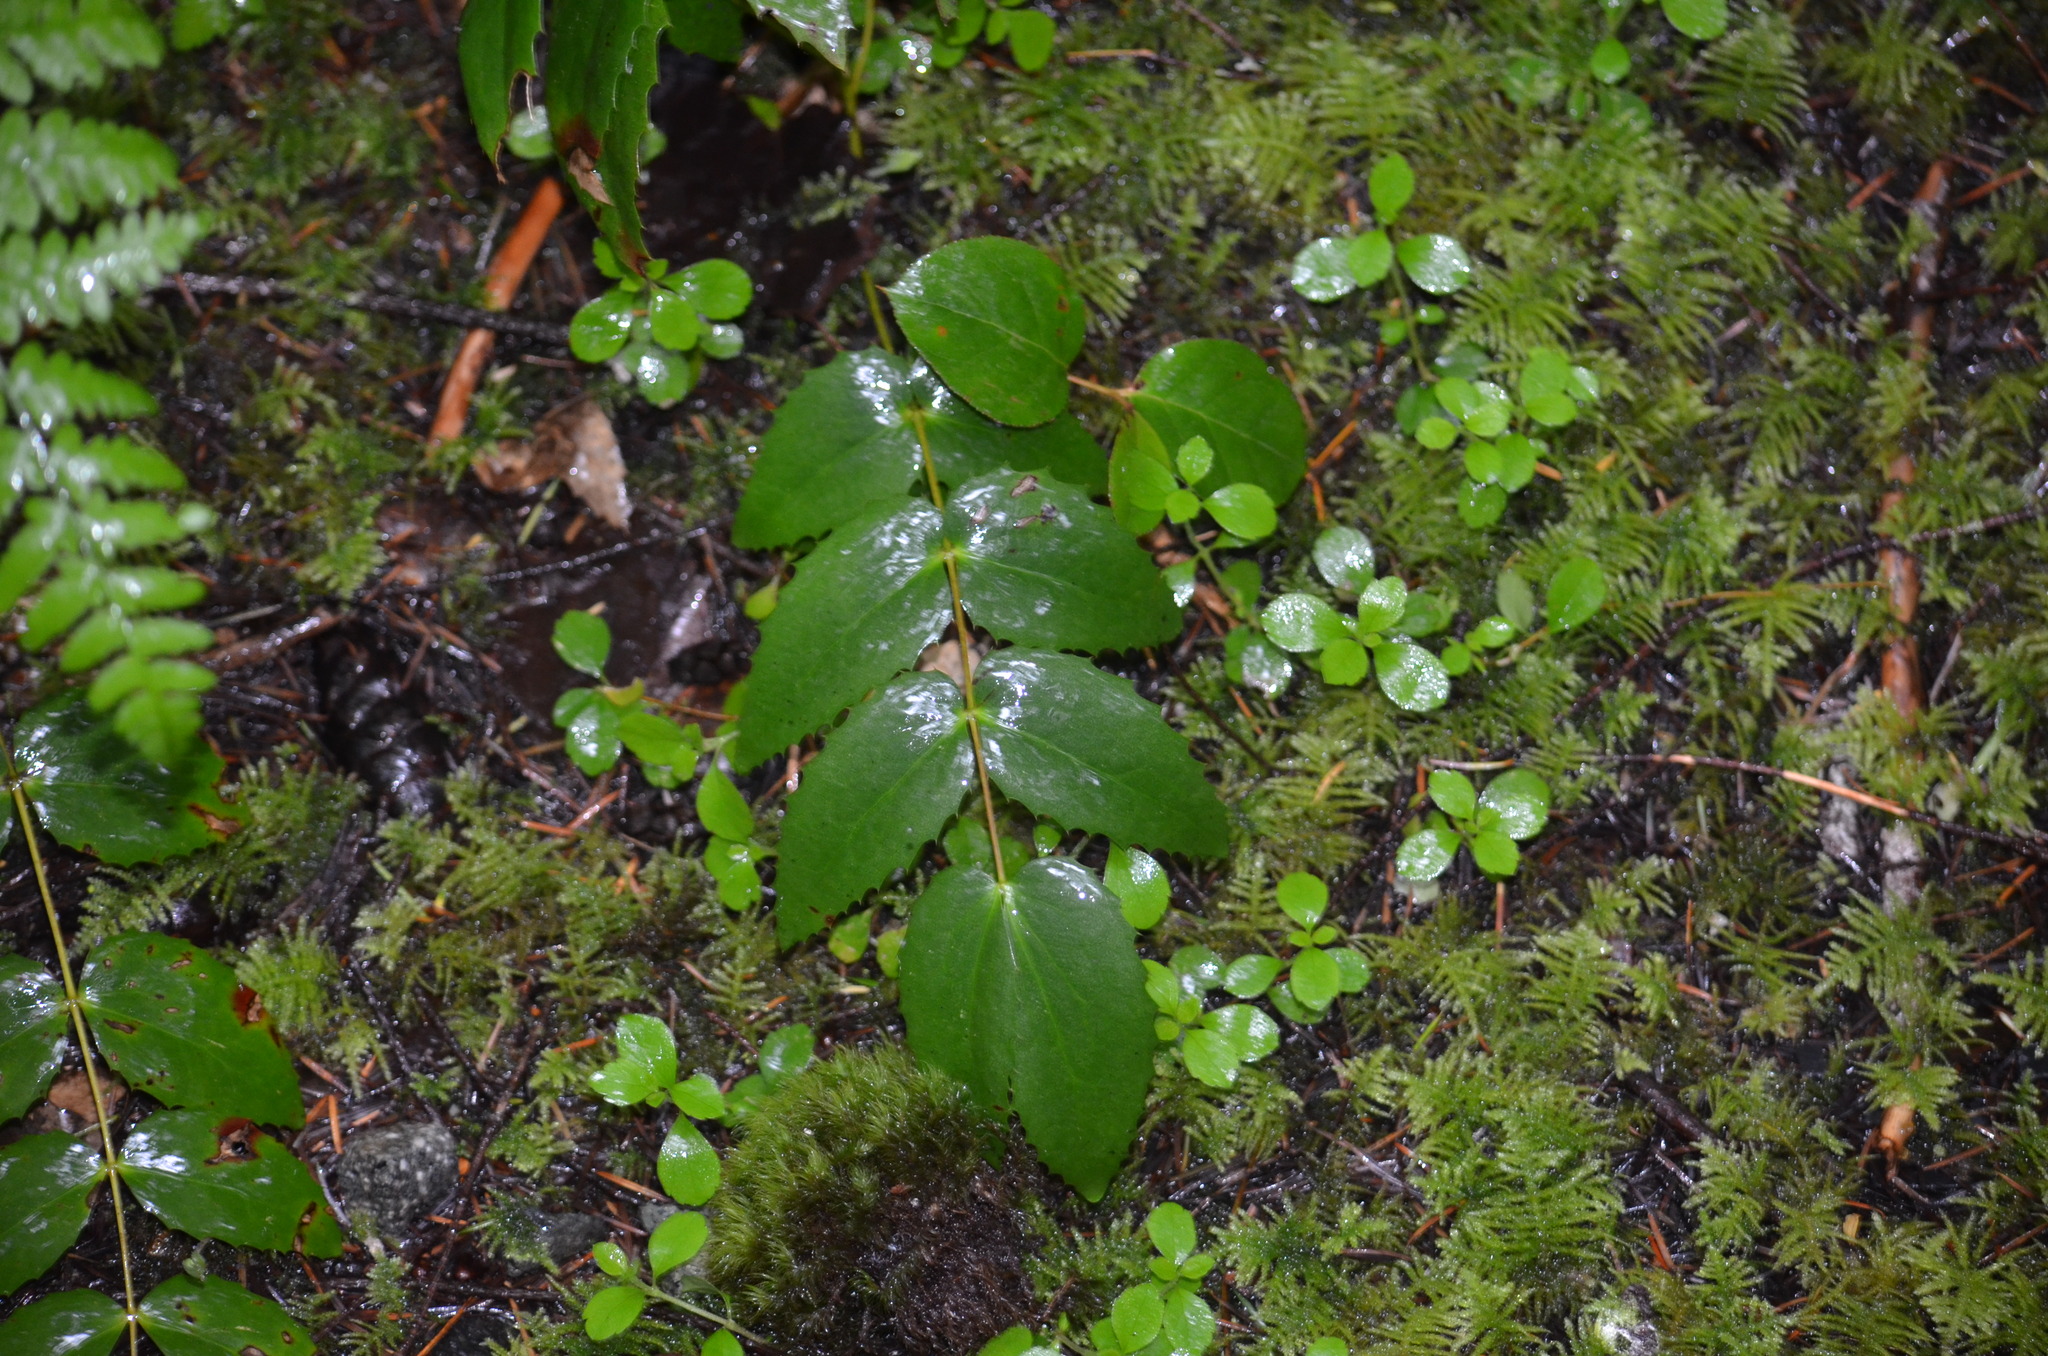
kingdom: Plantae
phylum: Tracheophyta
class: Magnoliopsida
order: Ranunculales
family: Berberidaceae
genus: Mahonia
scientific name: Mahonia nervosa
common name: Cascade oregon-grape
